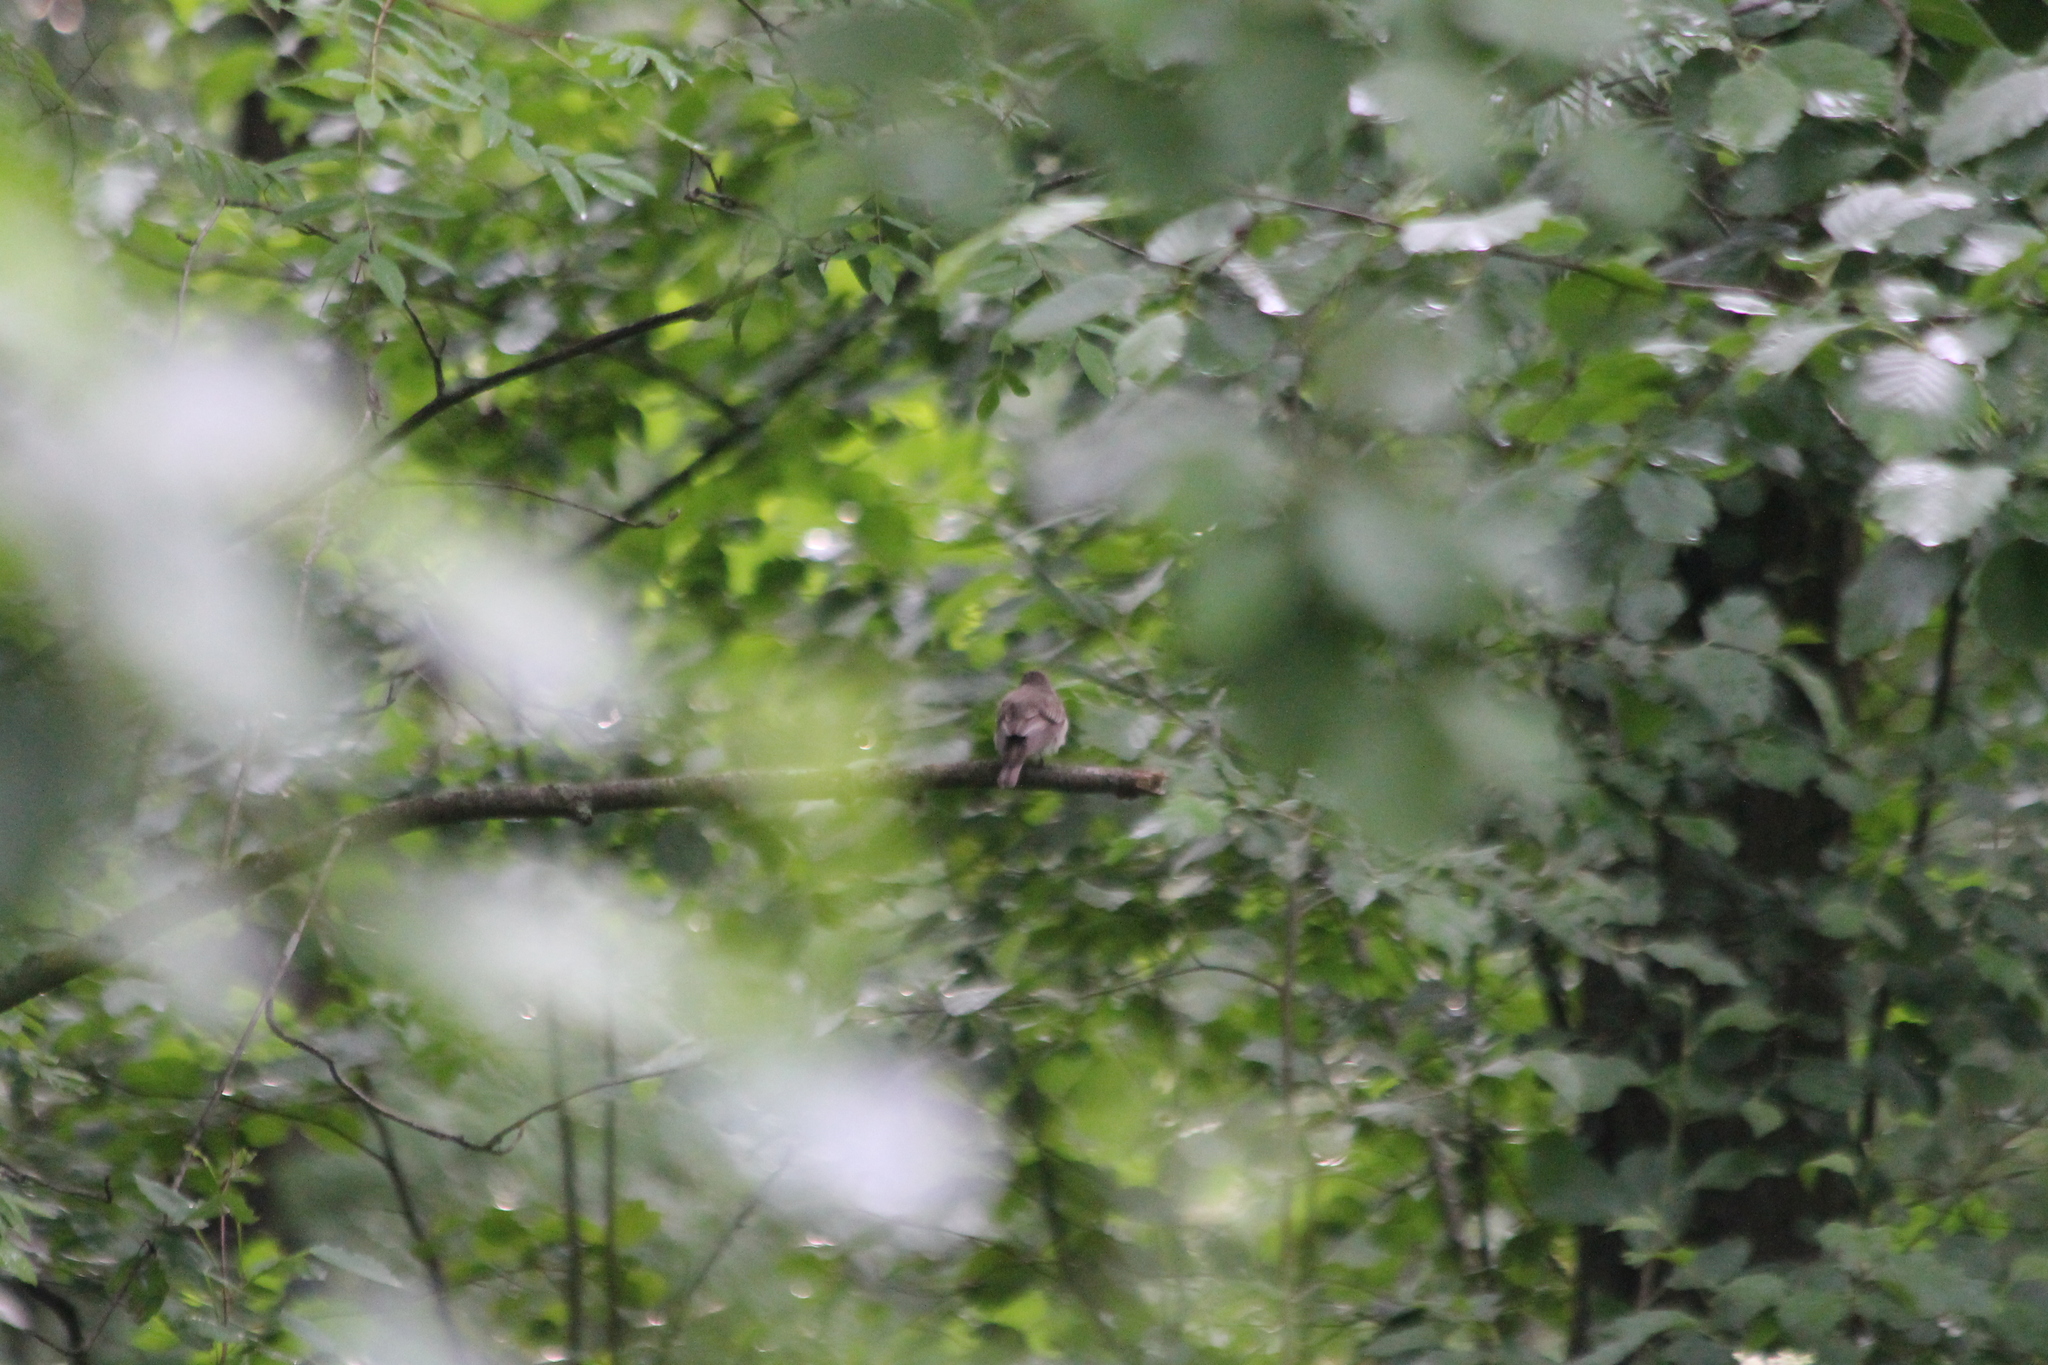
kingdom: Animalia
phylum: Chordata
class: Aves
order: Passeriformes
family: Muscicapidae
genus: Muscicapa
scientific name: Muscicapa striata
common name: Spotted flycatcher
